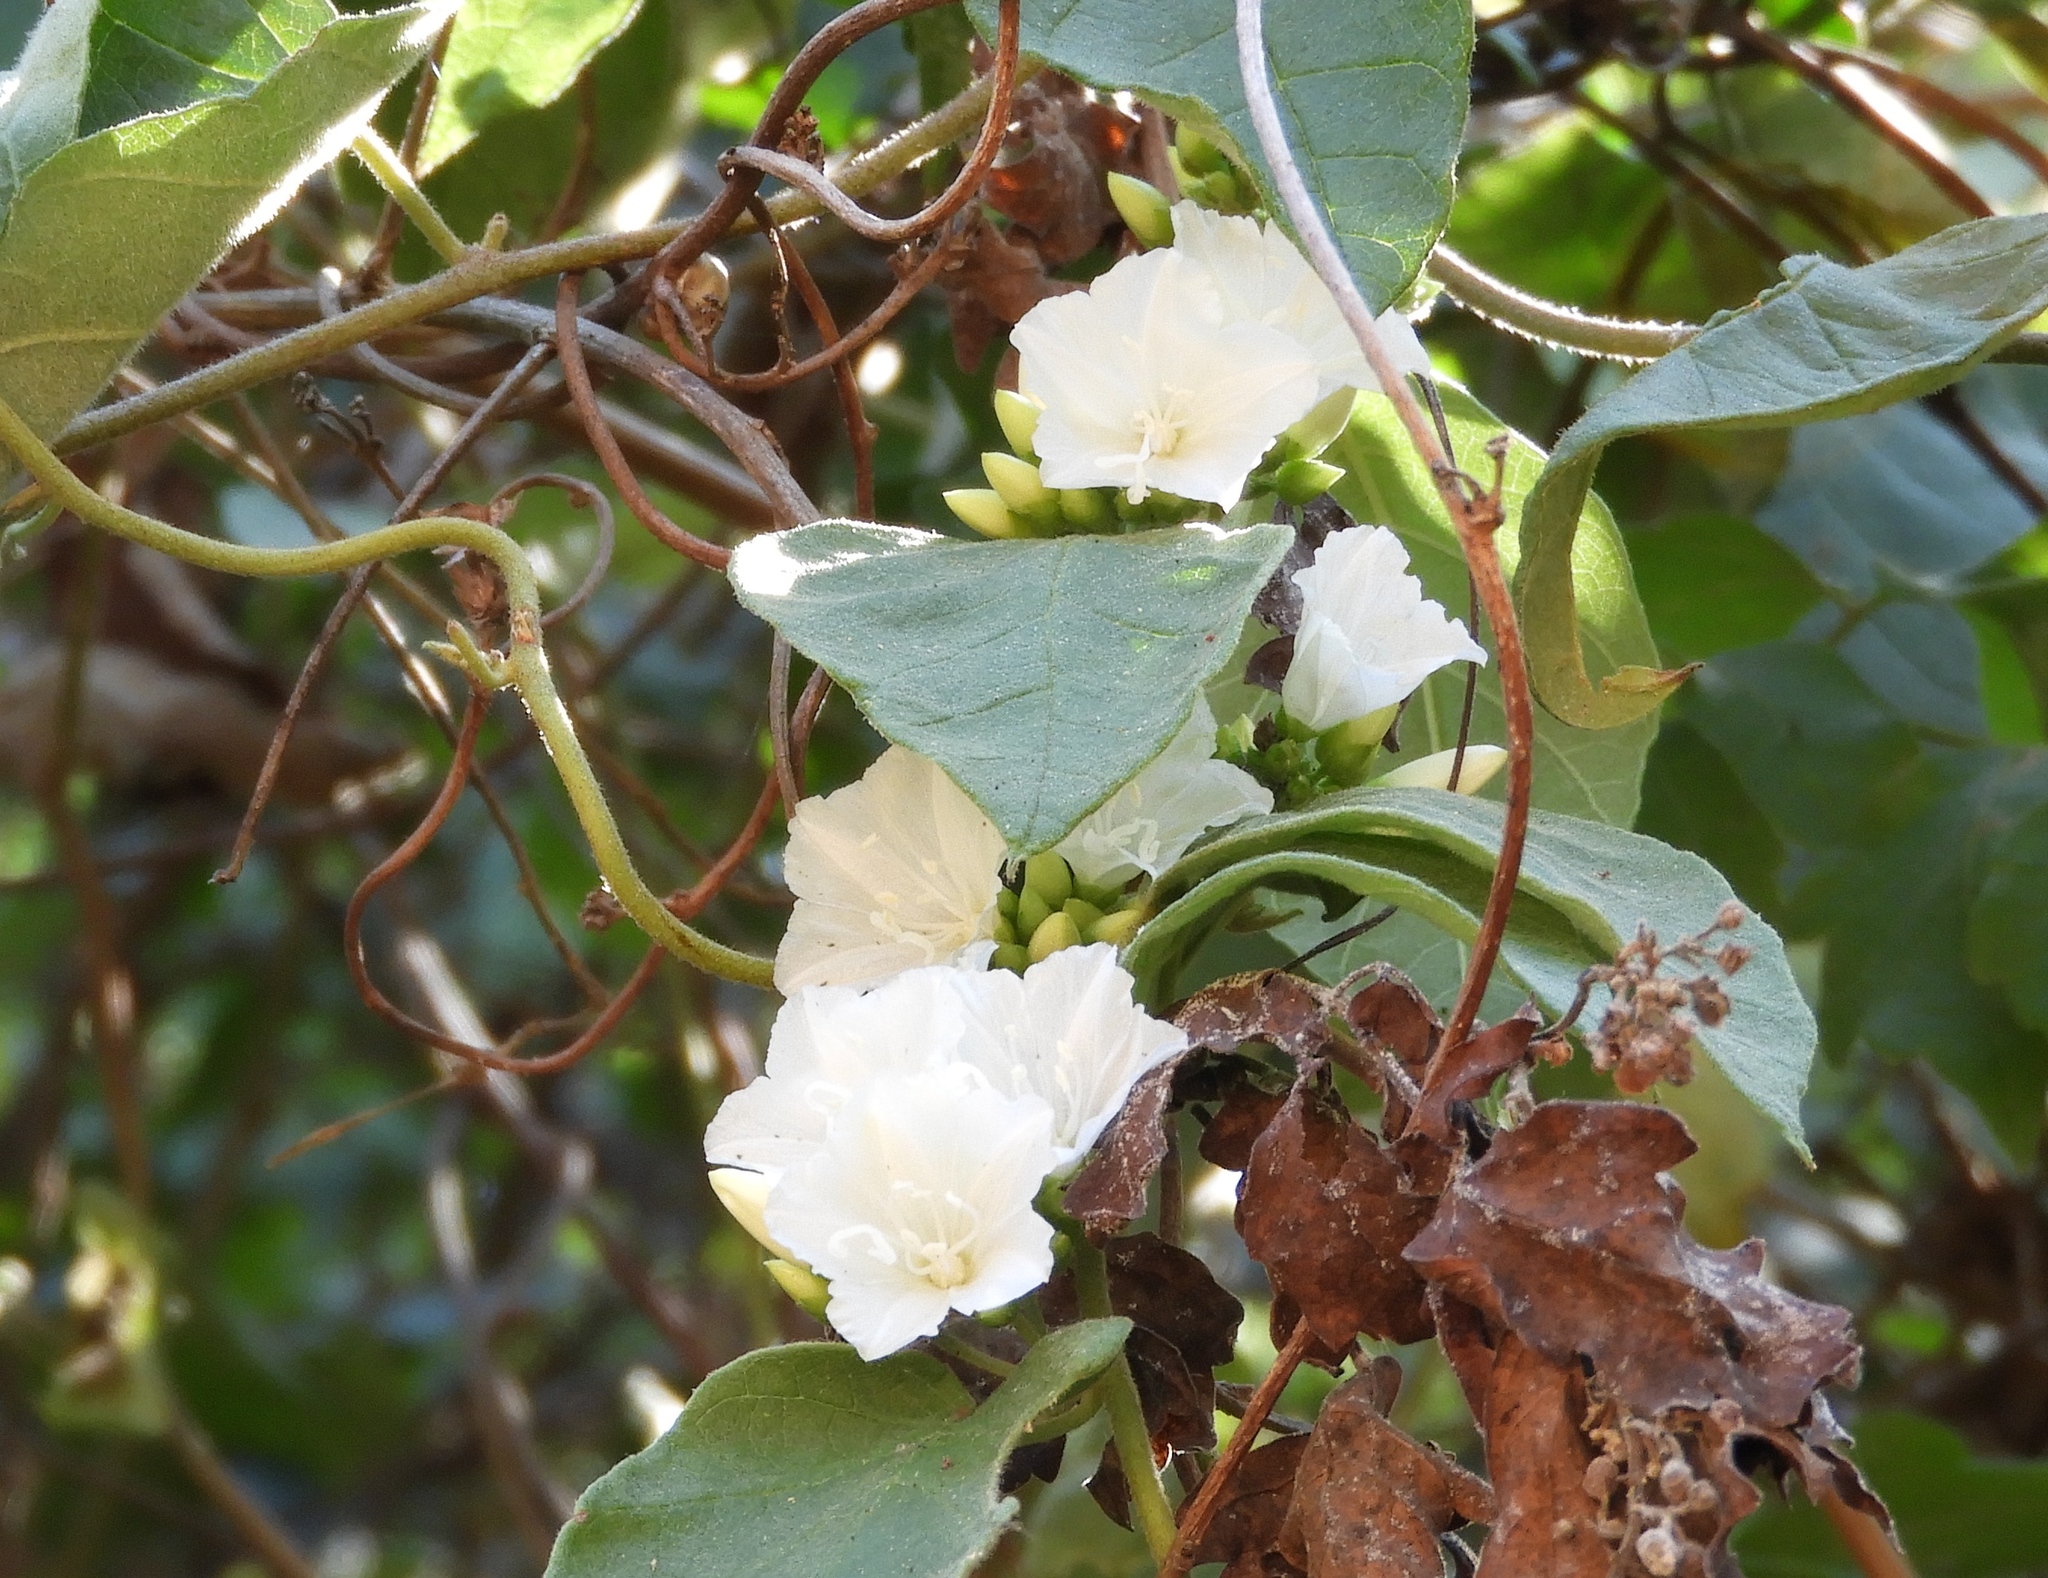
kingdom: Plantae
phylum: Tracheophyta
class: Magnoliopsida
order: Solanales
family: Convolvulaceae
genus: Jacquemontia
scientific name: Jacquemontia nodiflora
